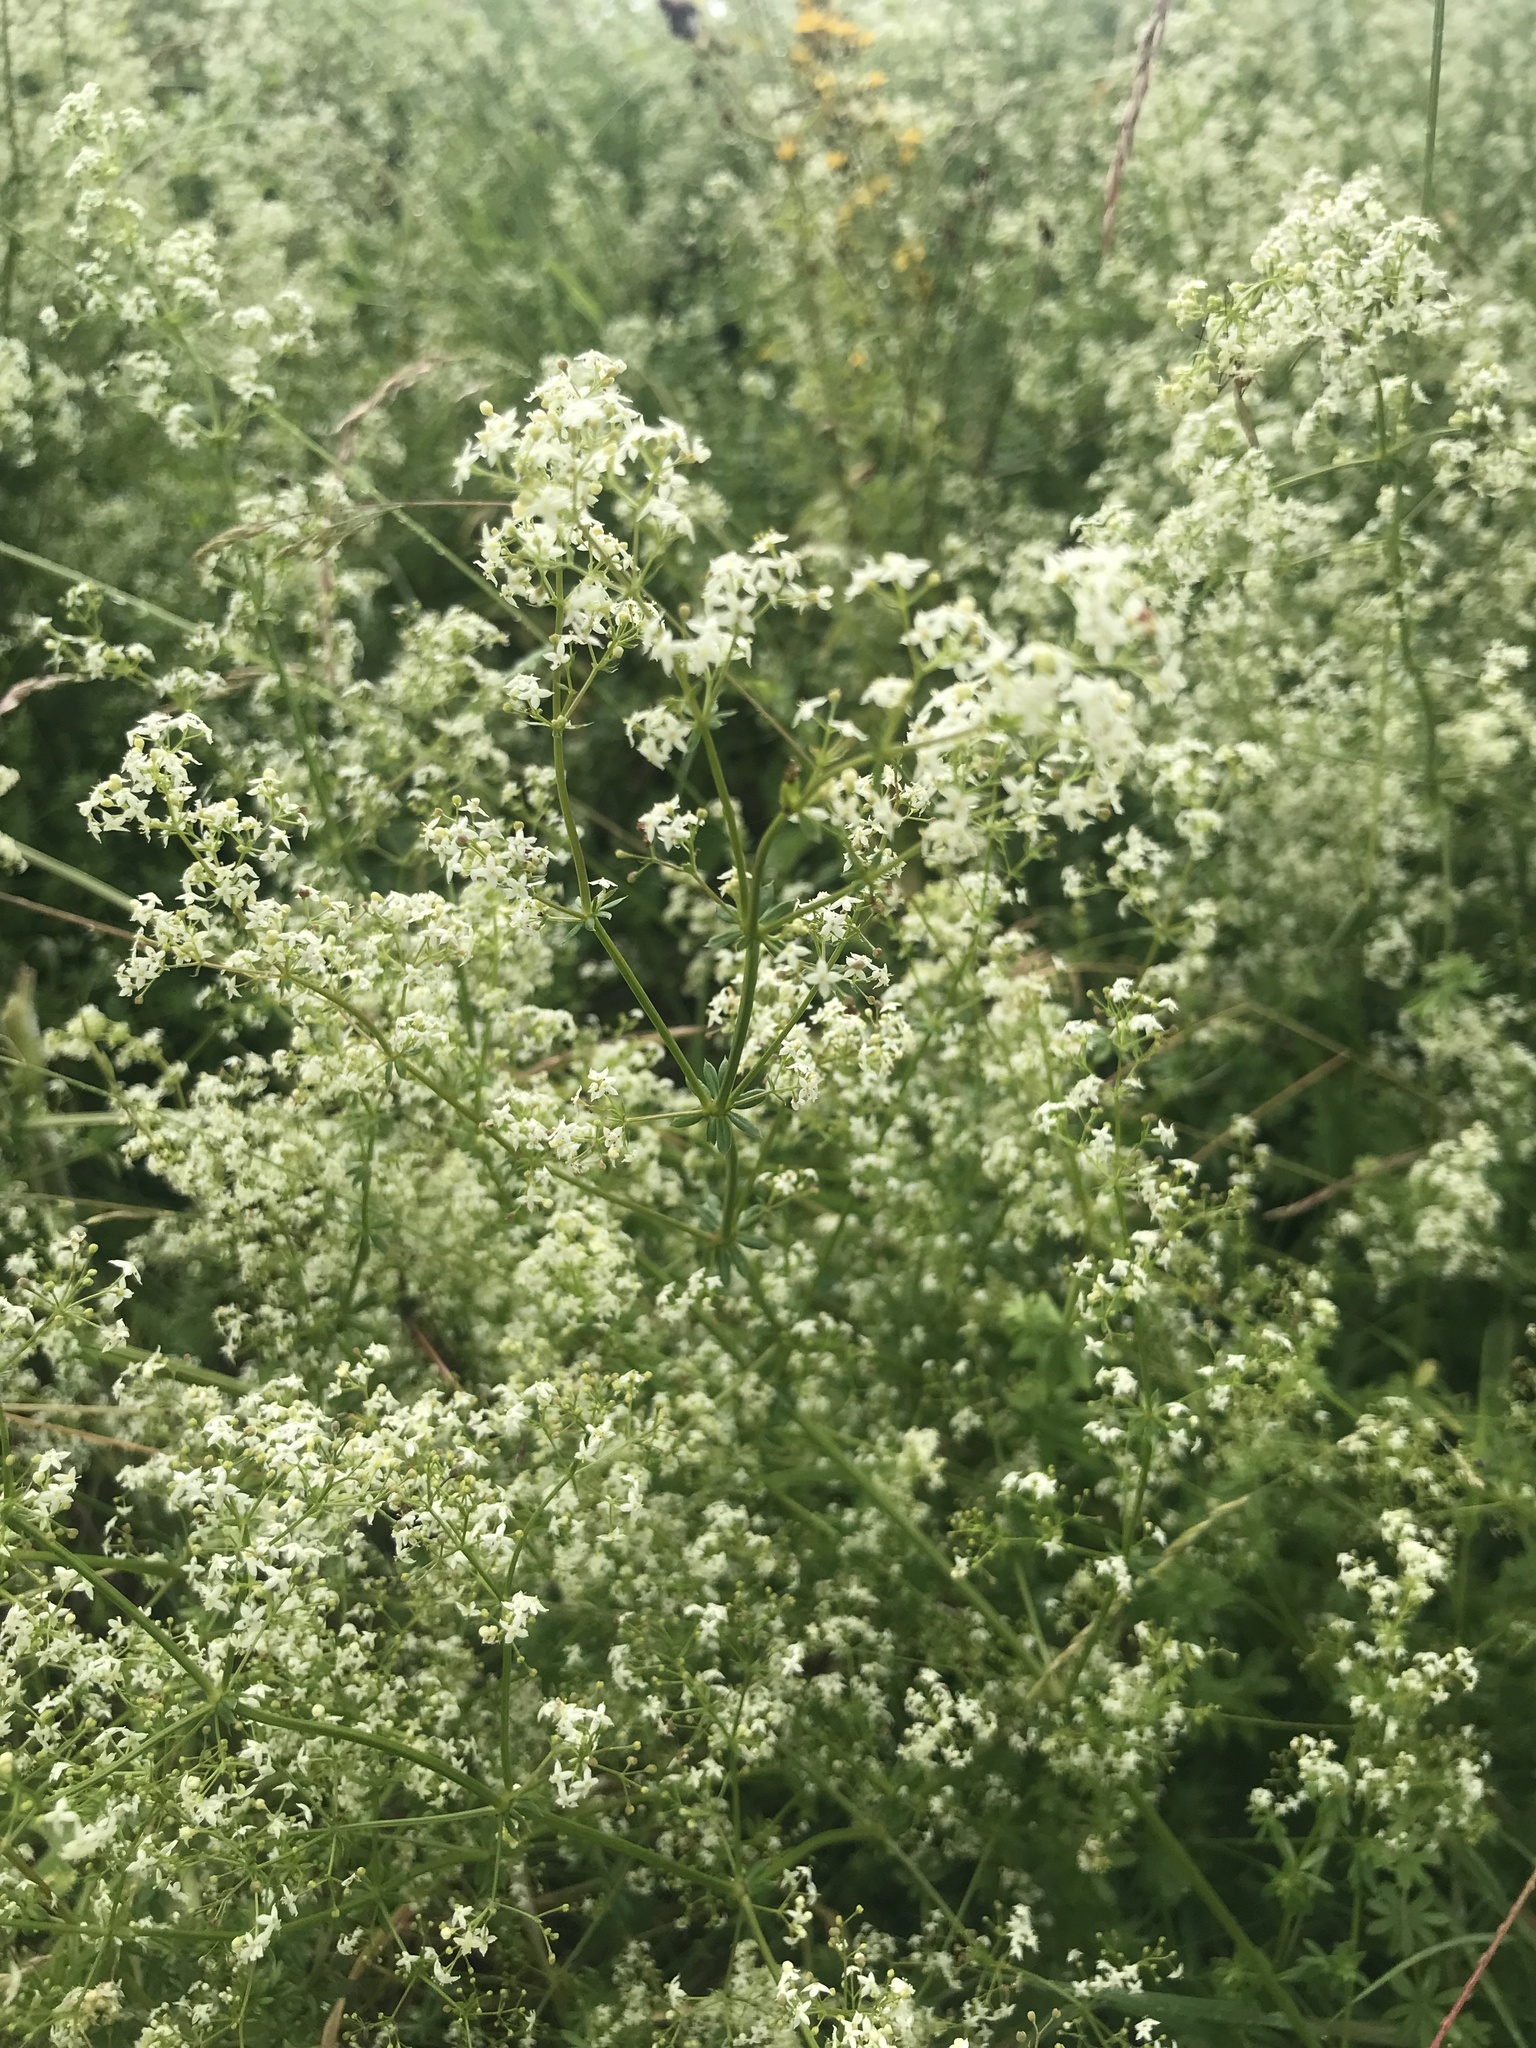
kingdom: Plantae
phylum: Tracheophyta
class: Magnoliopsida
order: Gentianales
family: Rubiaceae
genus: Galium
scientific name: Galium album
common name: White bedstraw
